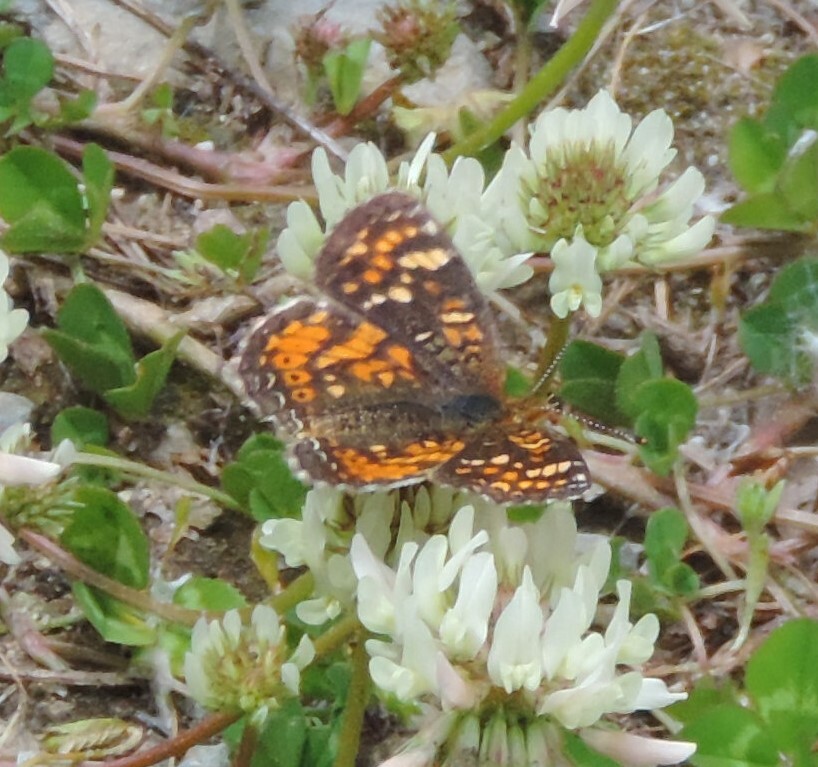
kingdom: Animalia
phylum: Arthropoda
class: Insecta
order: Lepidoptera
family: Nymphalidae
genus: Phyciodes
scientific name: Phyciodes tharos
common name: Pearl crescent
